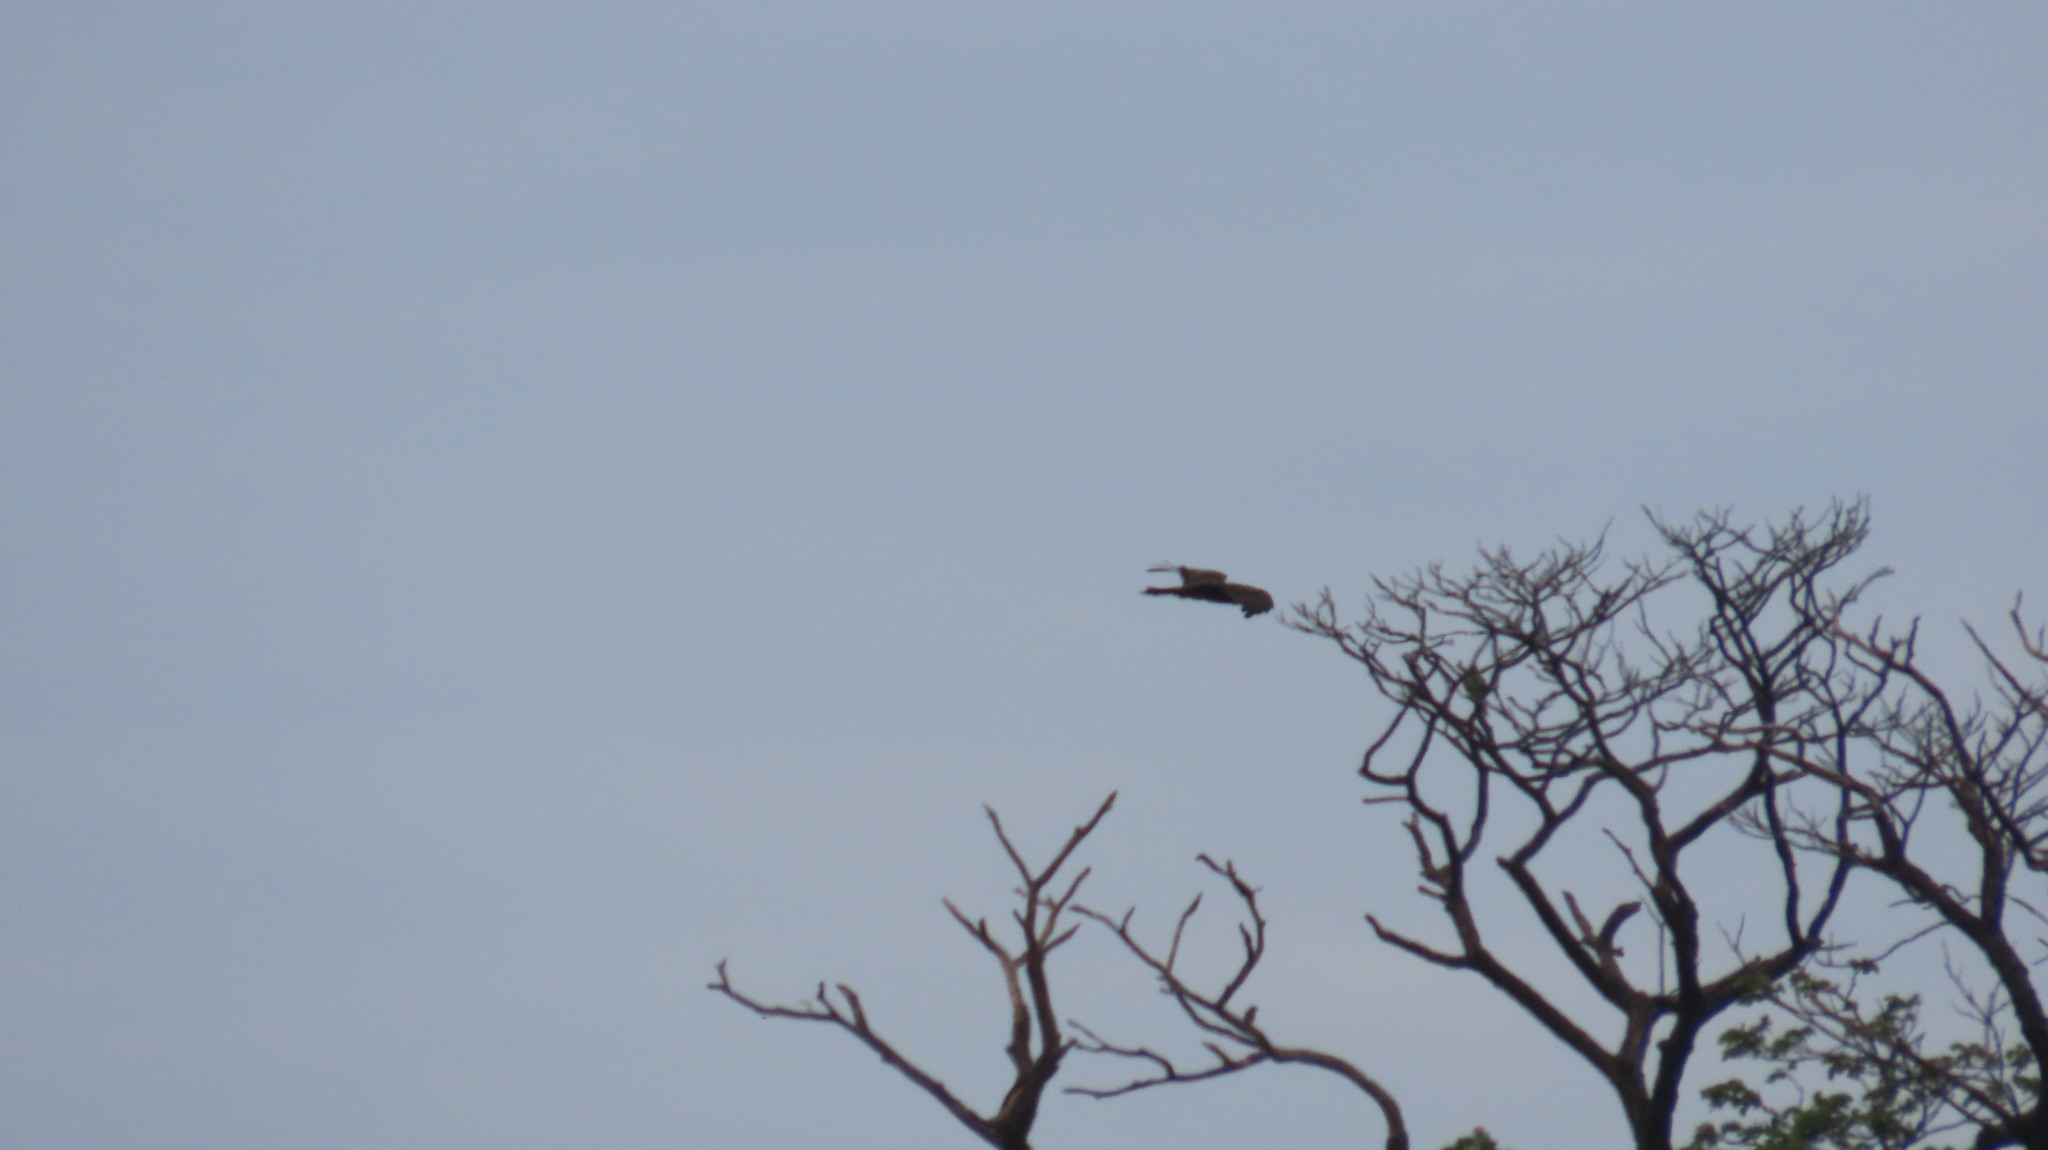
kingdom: Animalia
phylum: Chordata
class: Aves
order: Accipitriformes
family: Accipitridae
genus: Milvus
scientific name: Milvus migrans
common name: Black kite
